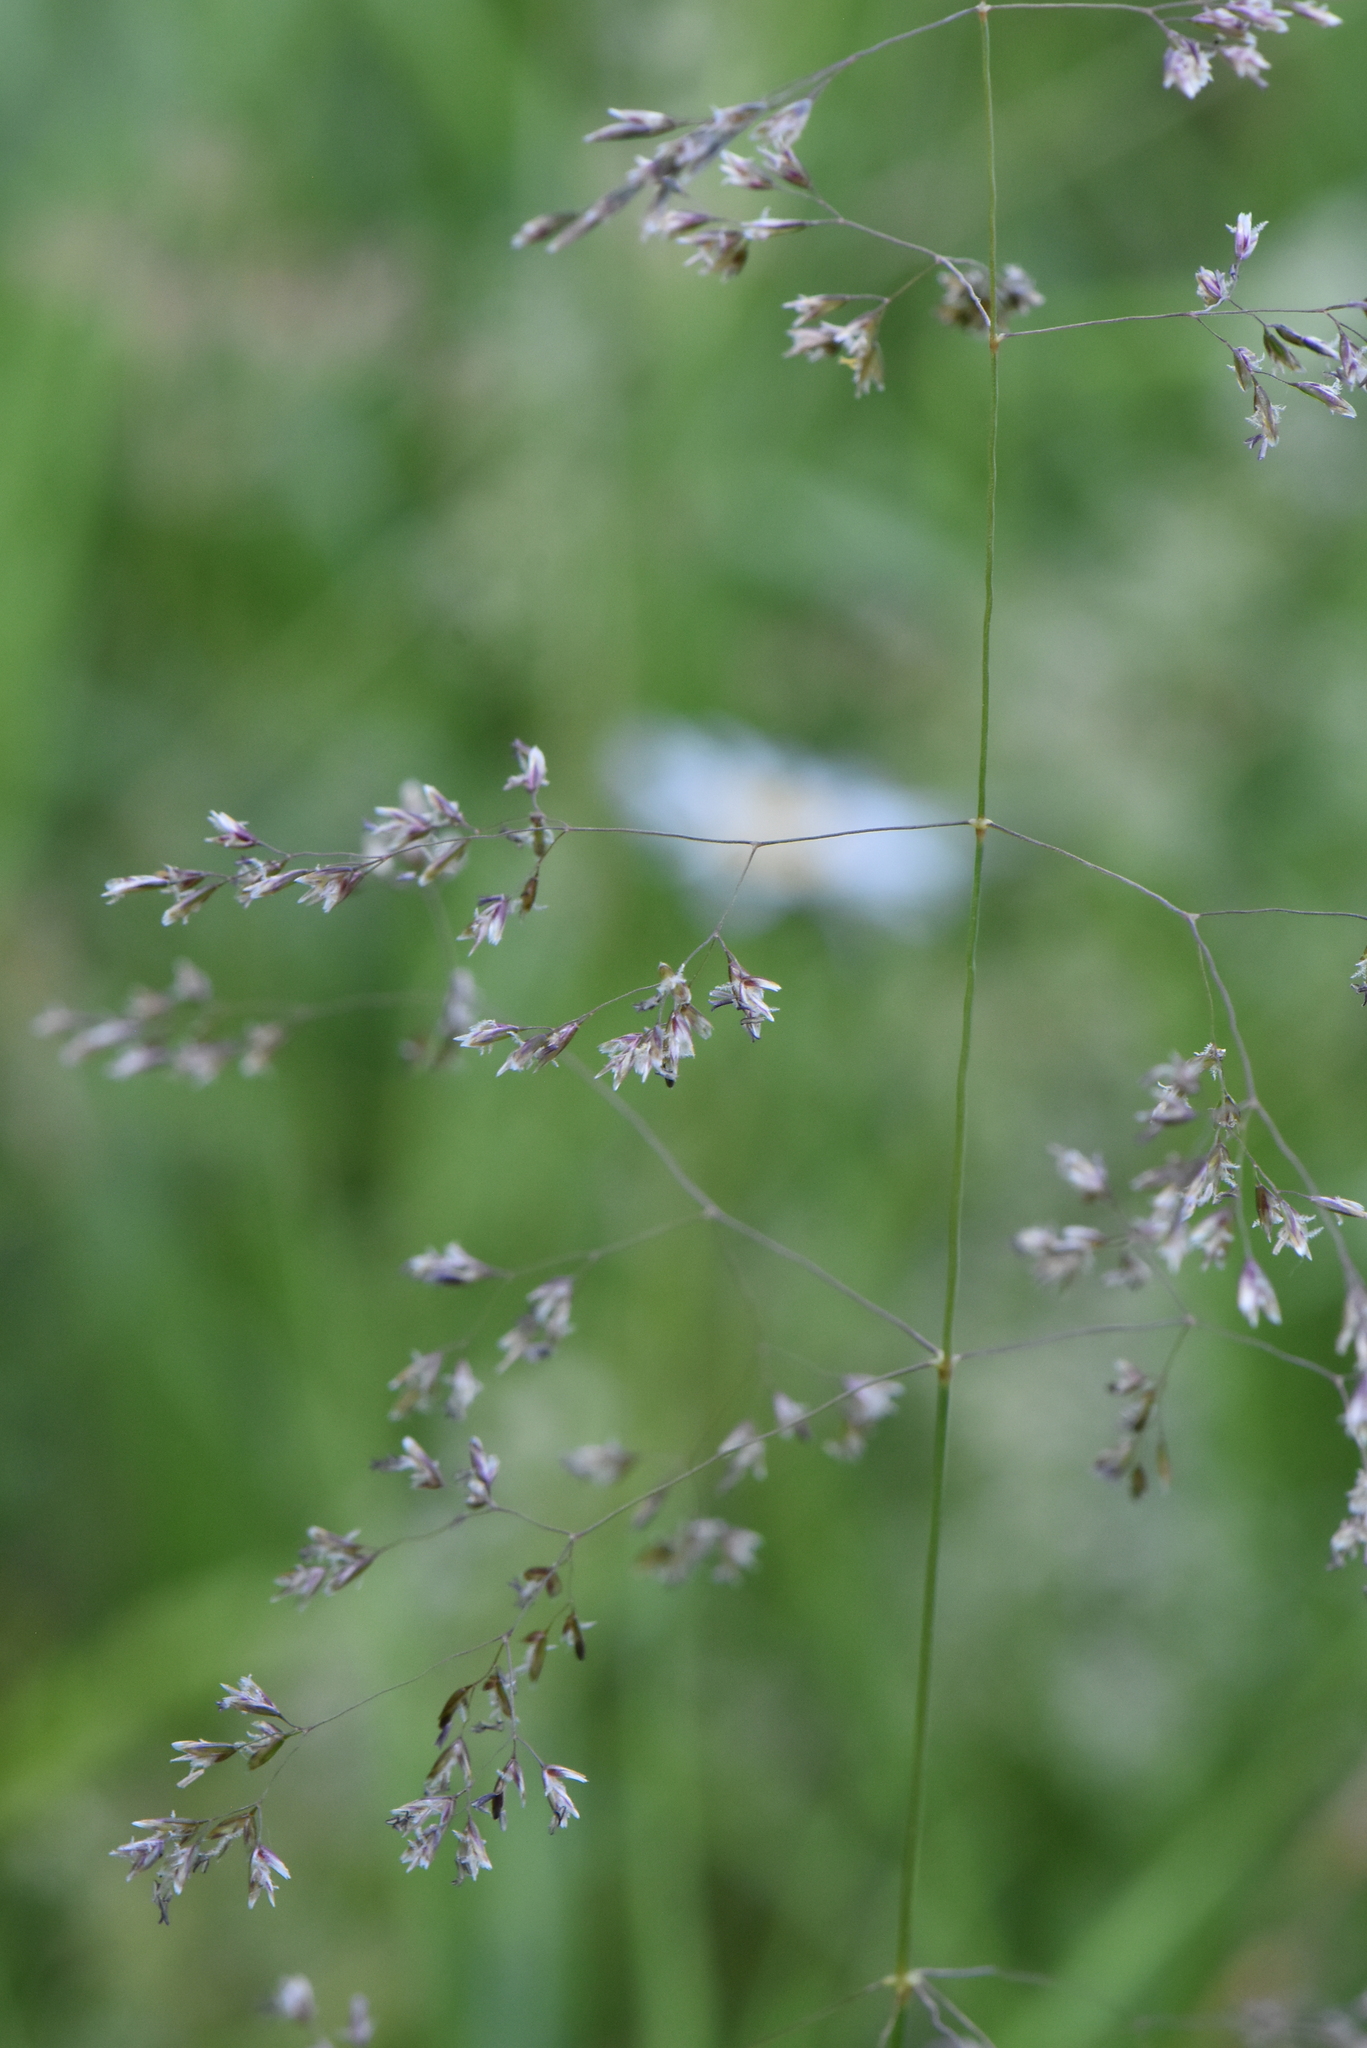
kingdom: Plantae
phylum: Tracheophyta
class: Liliopsida
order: Poales
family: Poaceae
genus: Deschampsia
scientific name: Deschampsia cespitosa
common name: Tufted hair-grass
